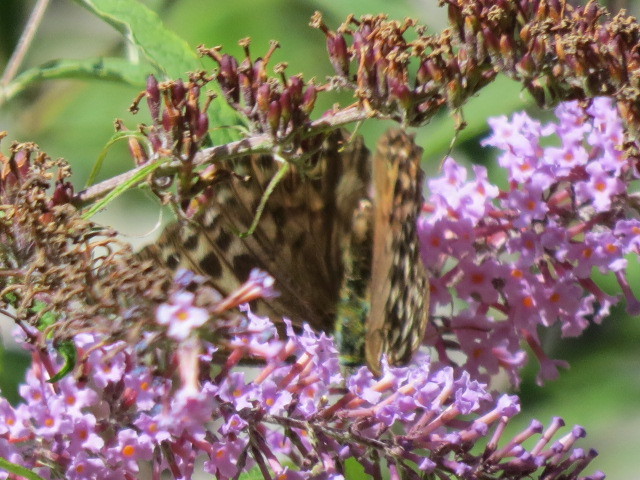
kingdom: Animalia
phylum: Arthropoda
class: Insecta
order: Lepidoptera
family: Nymphalidae
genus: Argynnis
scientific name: Argynnis paphia
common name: Silver-washed fritillary
